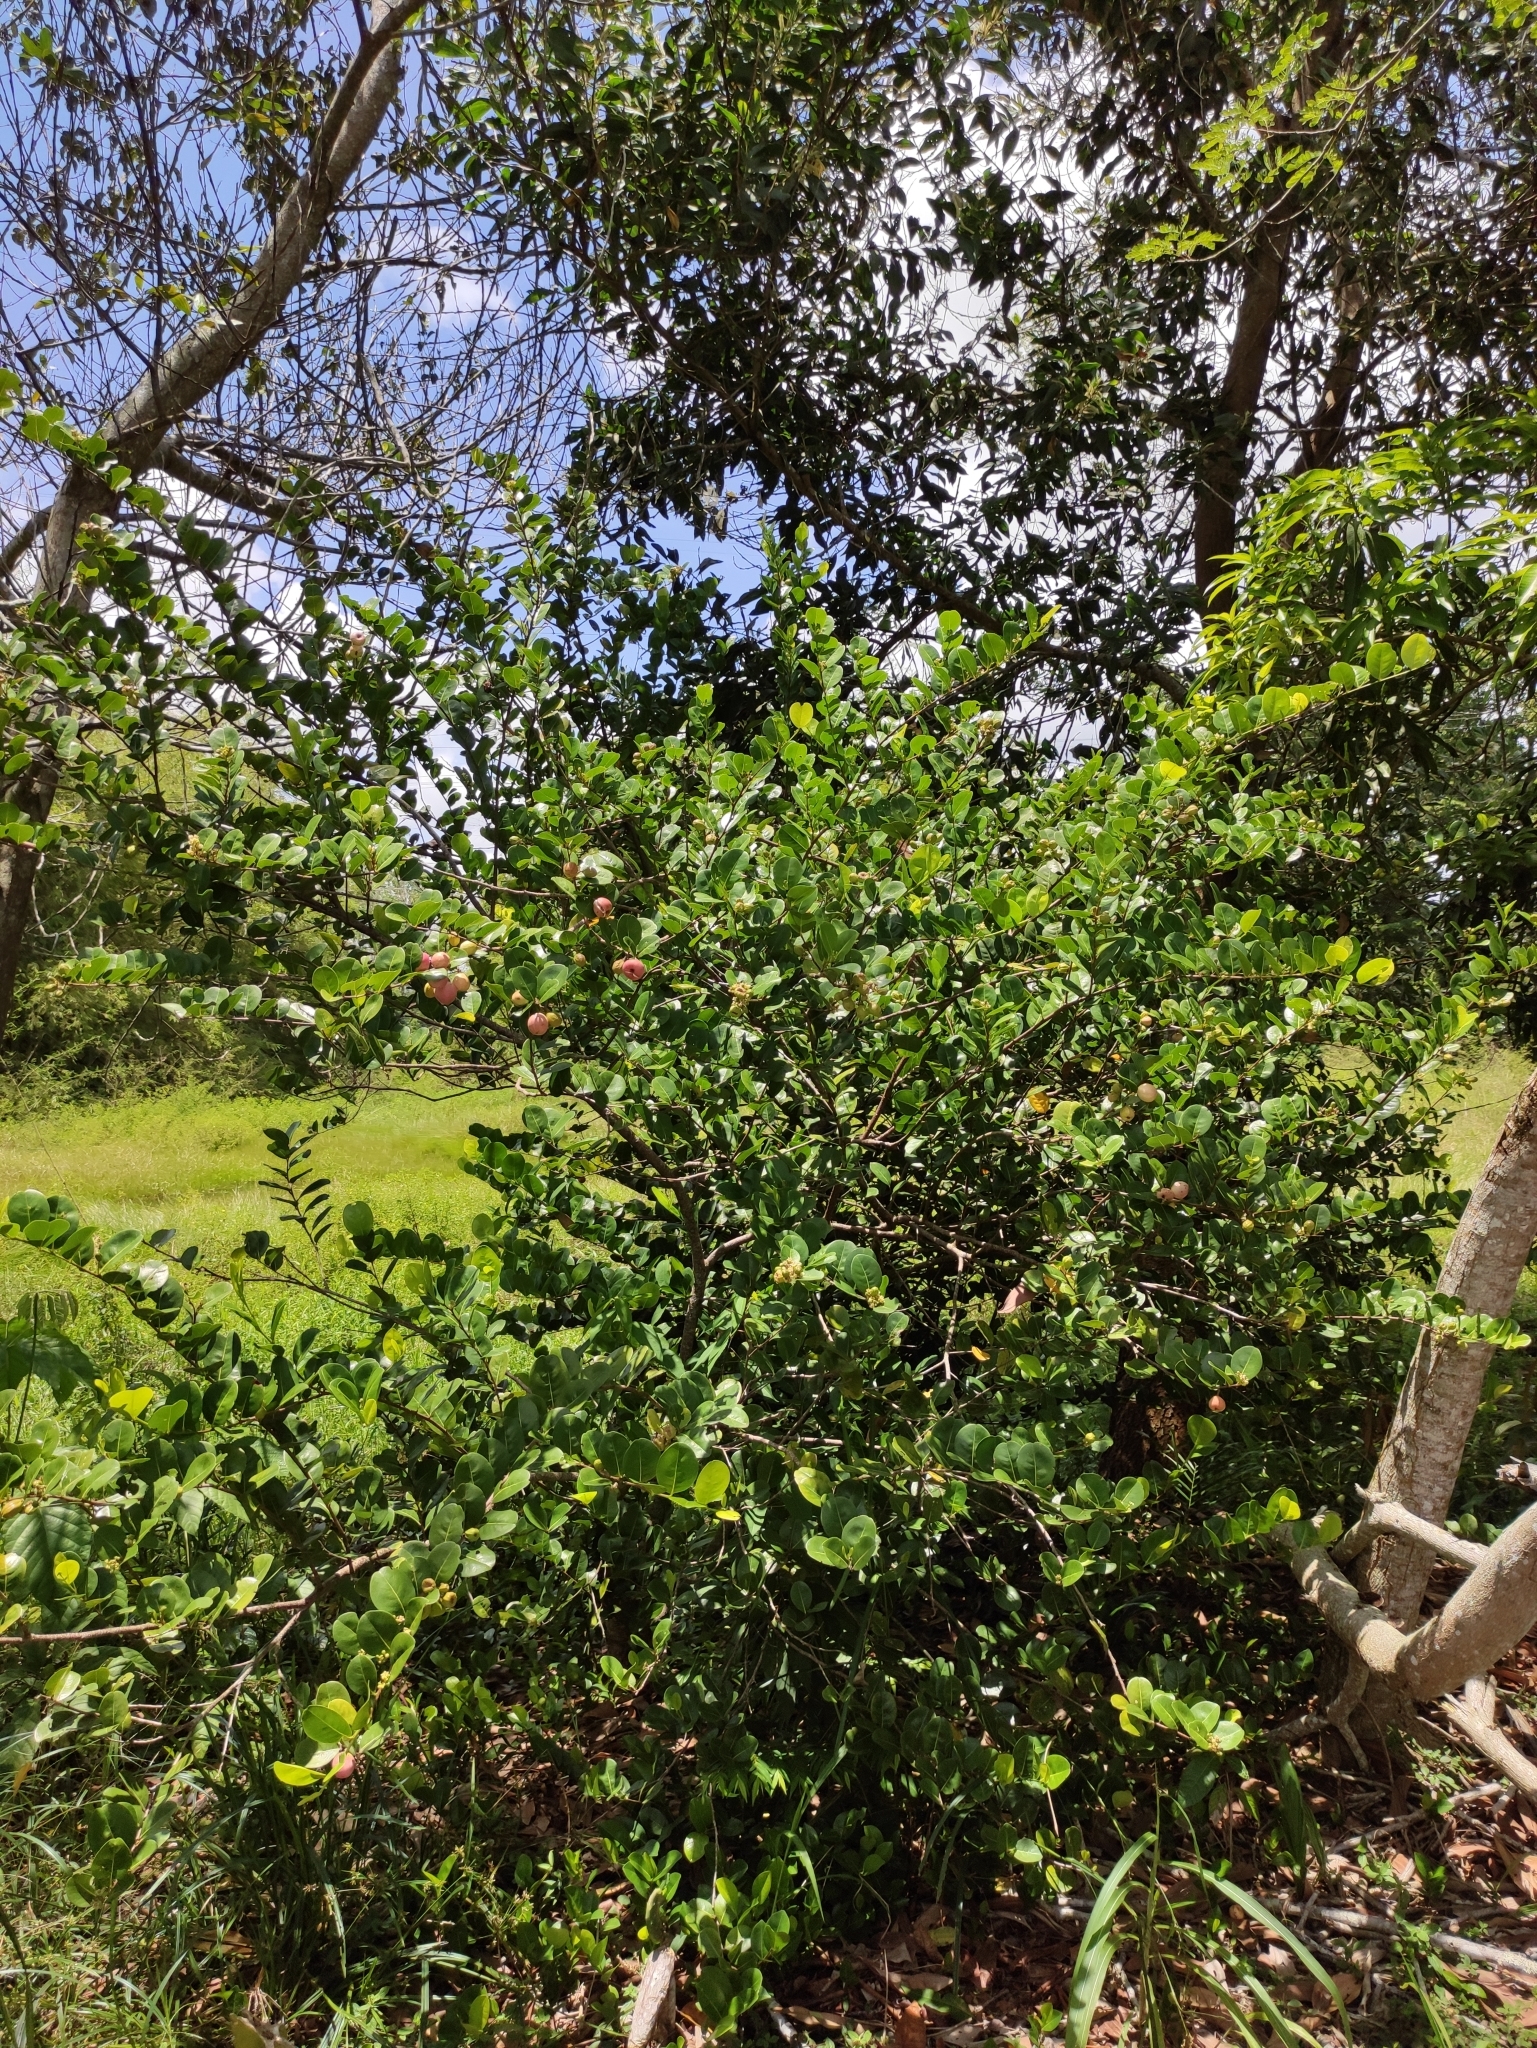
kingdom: Plantae
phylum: Tracheophyta
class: Magnoliopsida
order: Malpighiales
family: Chrysobalanaceae
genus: Chrysobalanus
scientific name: Chrysobalanus icaco
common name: Coco plum
